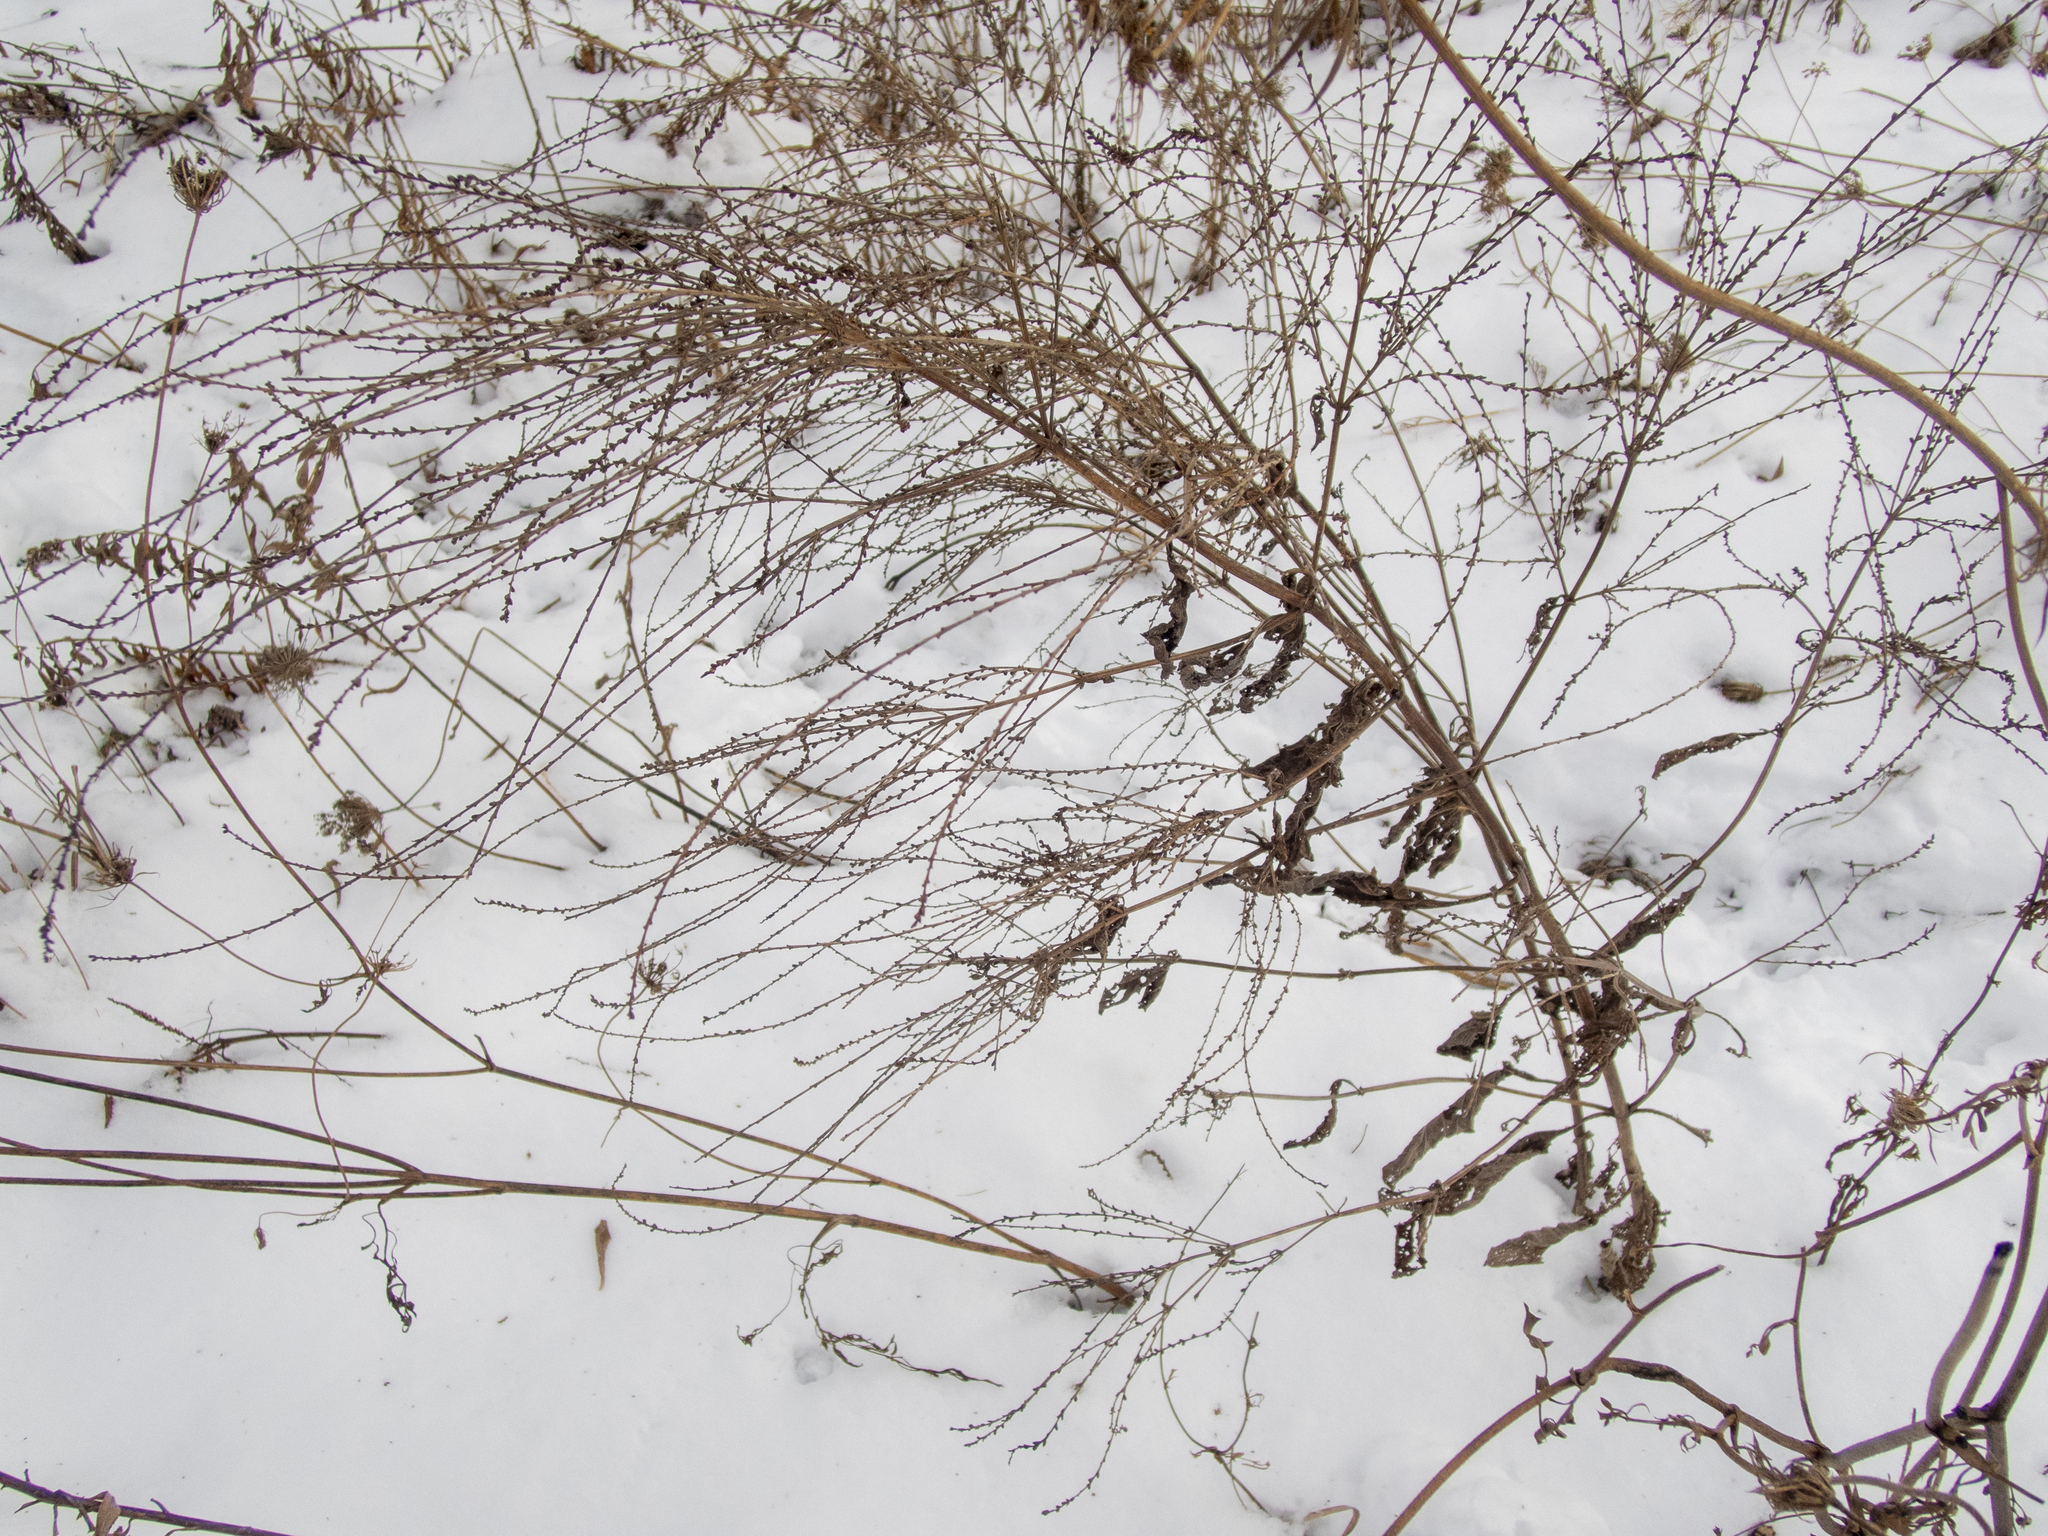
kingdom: Plantae
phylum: Tracheophyta
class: Magnoliopsida
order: Lamiales
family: Verbenaceae
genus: Verbena
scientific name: Verbena urticifolia
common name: Nettle-leaved vervain
